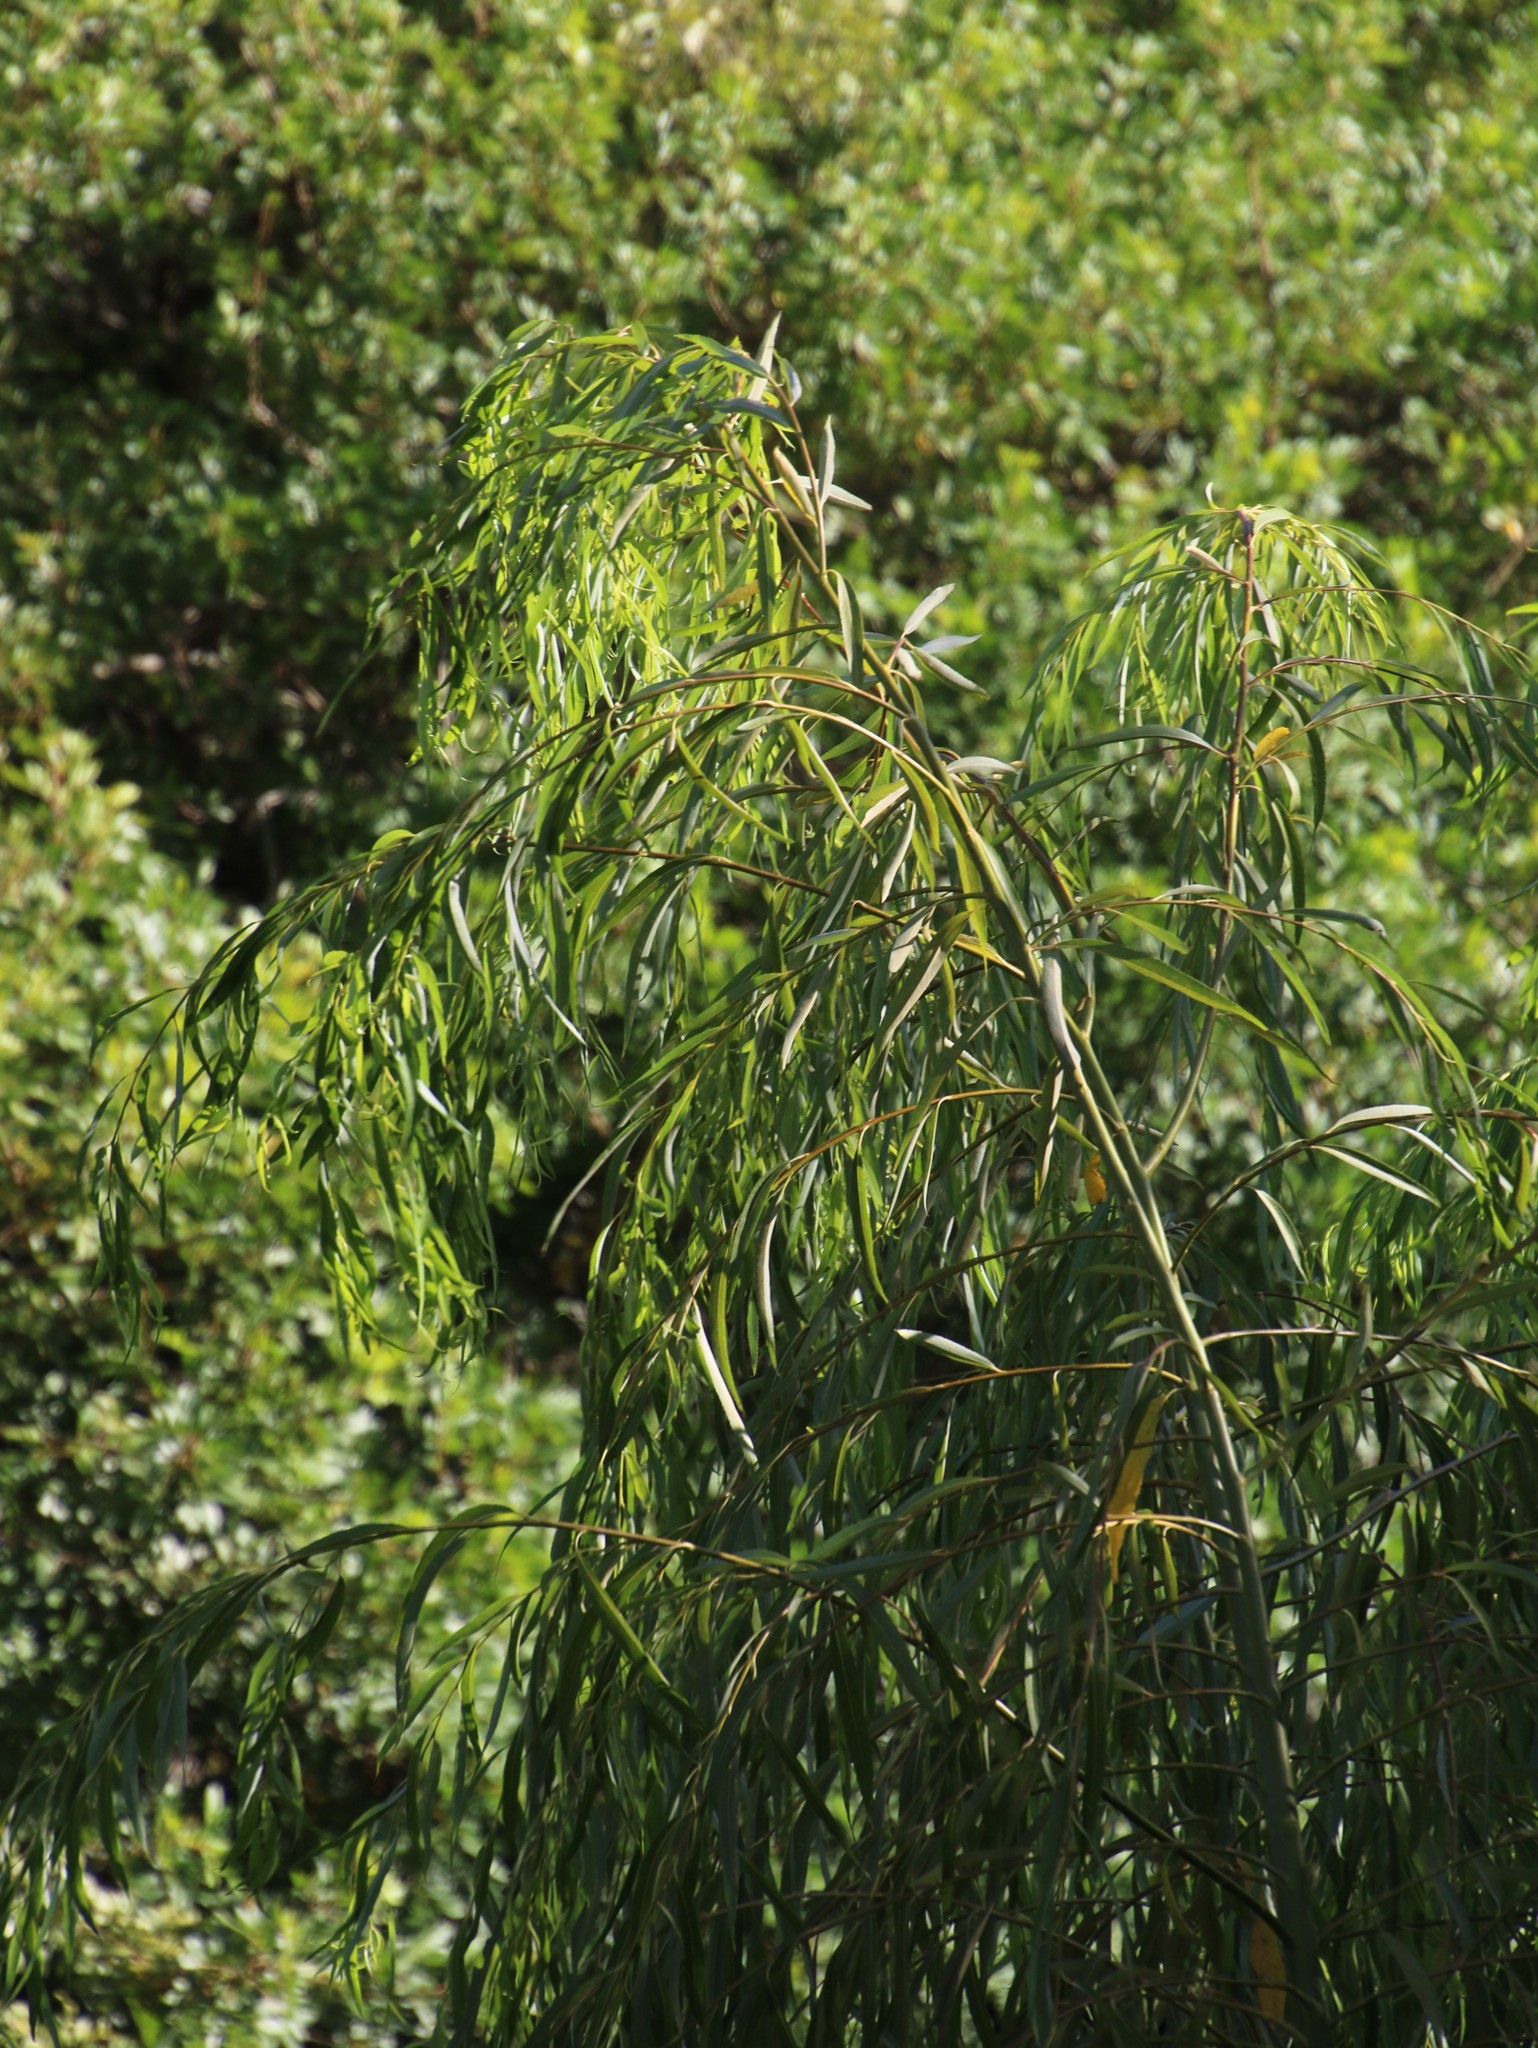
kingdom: Plantae
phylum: Tracheophyta
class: Magnoliopsida
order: Malpighiales
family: Salicaceae
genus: Salix
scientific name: Salix babylonica
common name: Weeping willow
